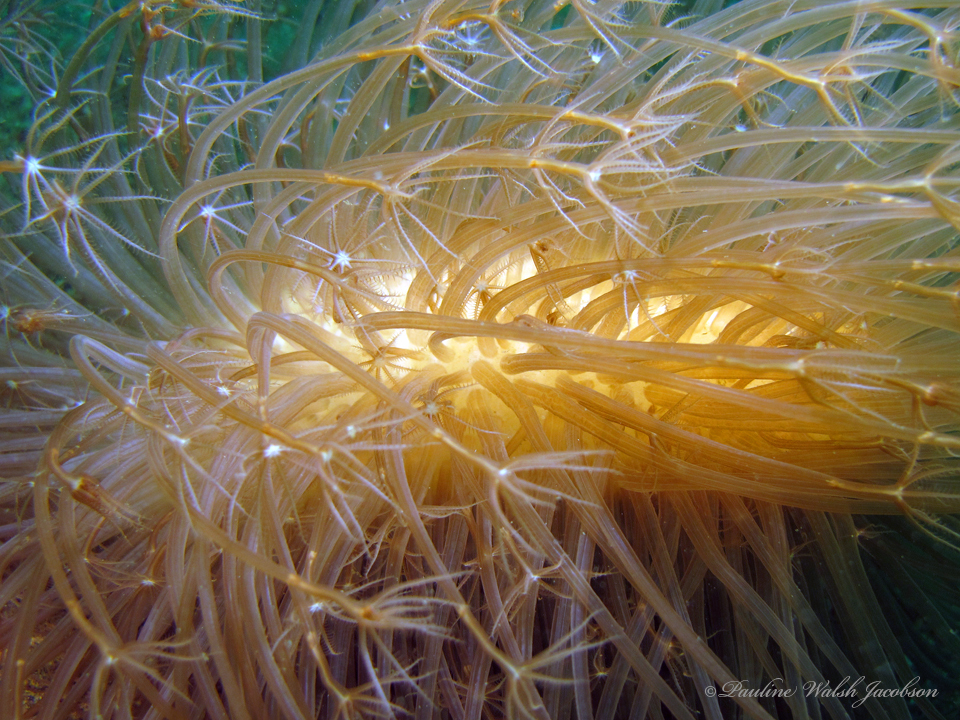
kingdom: Animalia
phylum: Cnidaria
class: Anthozoa
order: Scleralcyonacea
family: Veretillidae
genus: Cavernularia
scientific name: Cavernularia obesa
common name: Barrel sea-pen
